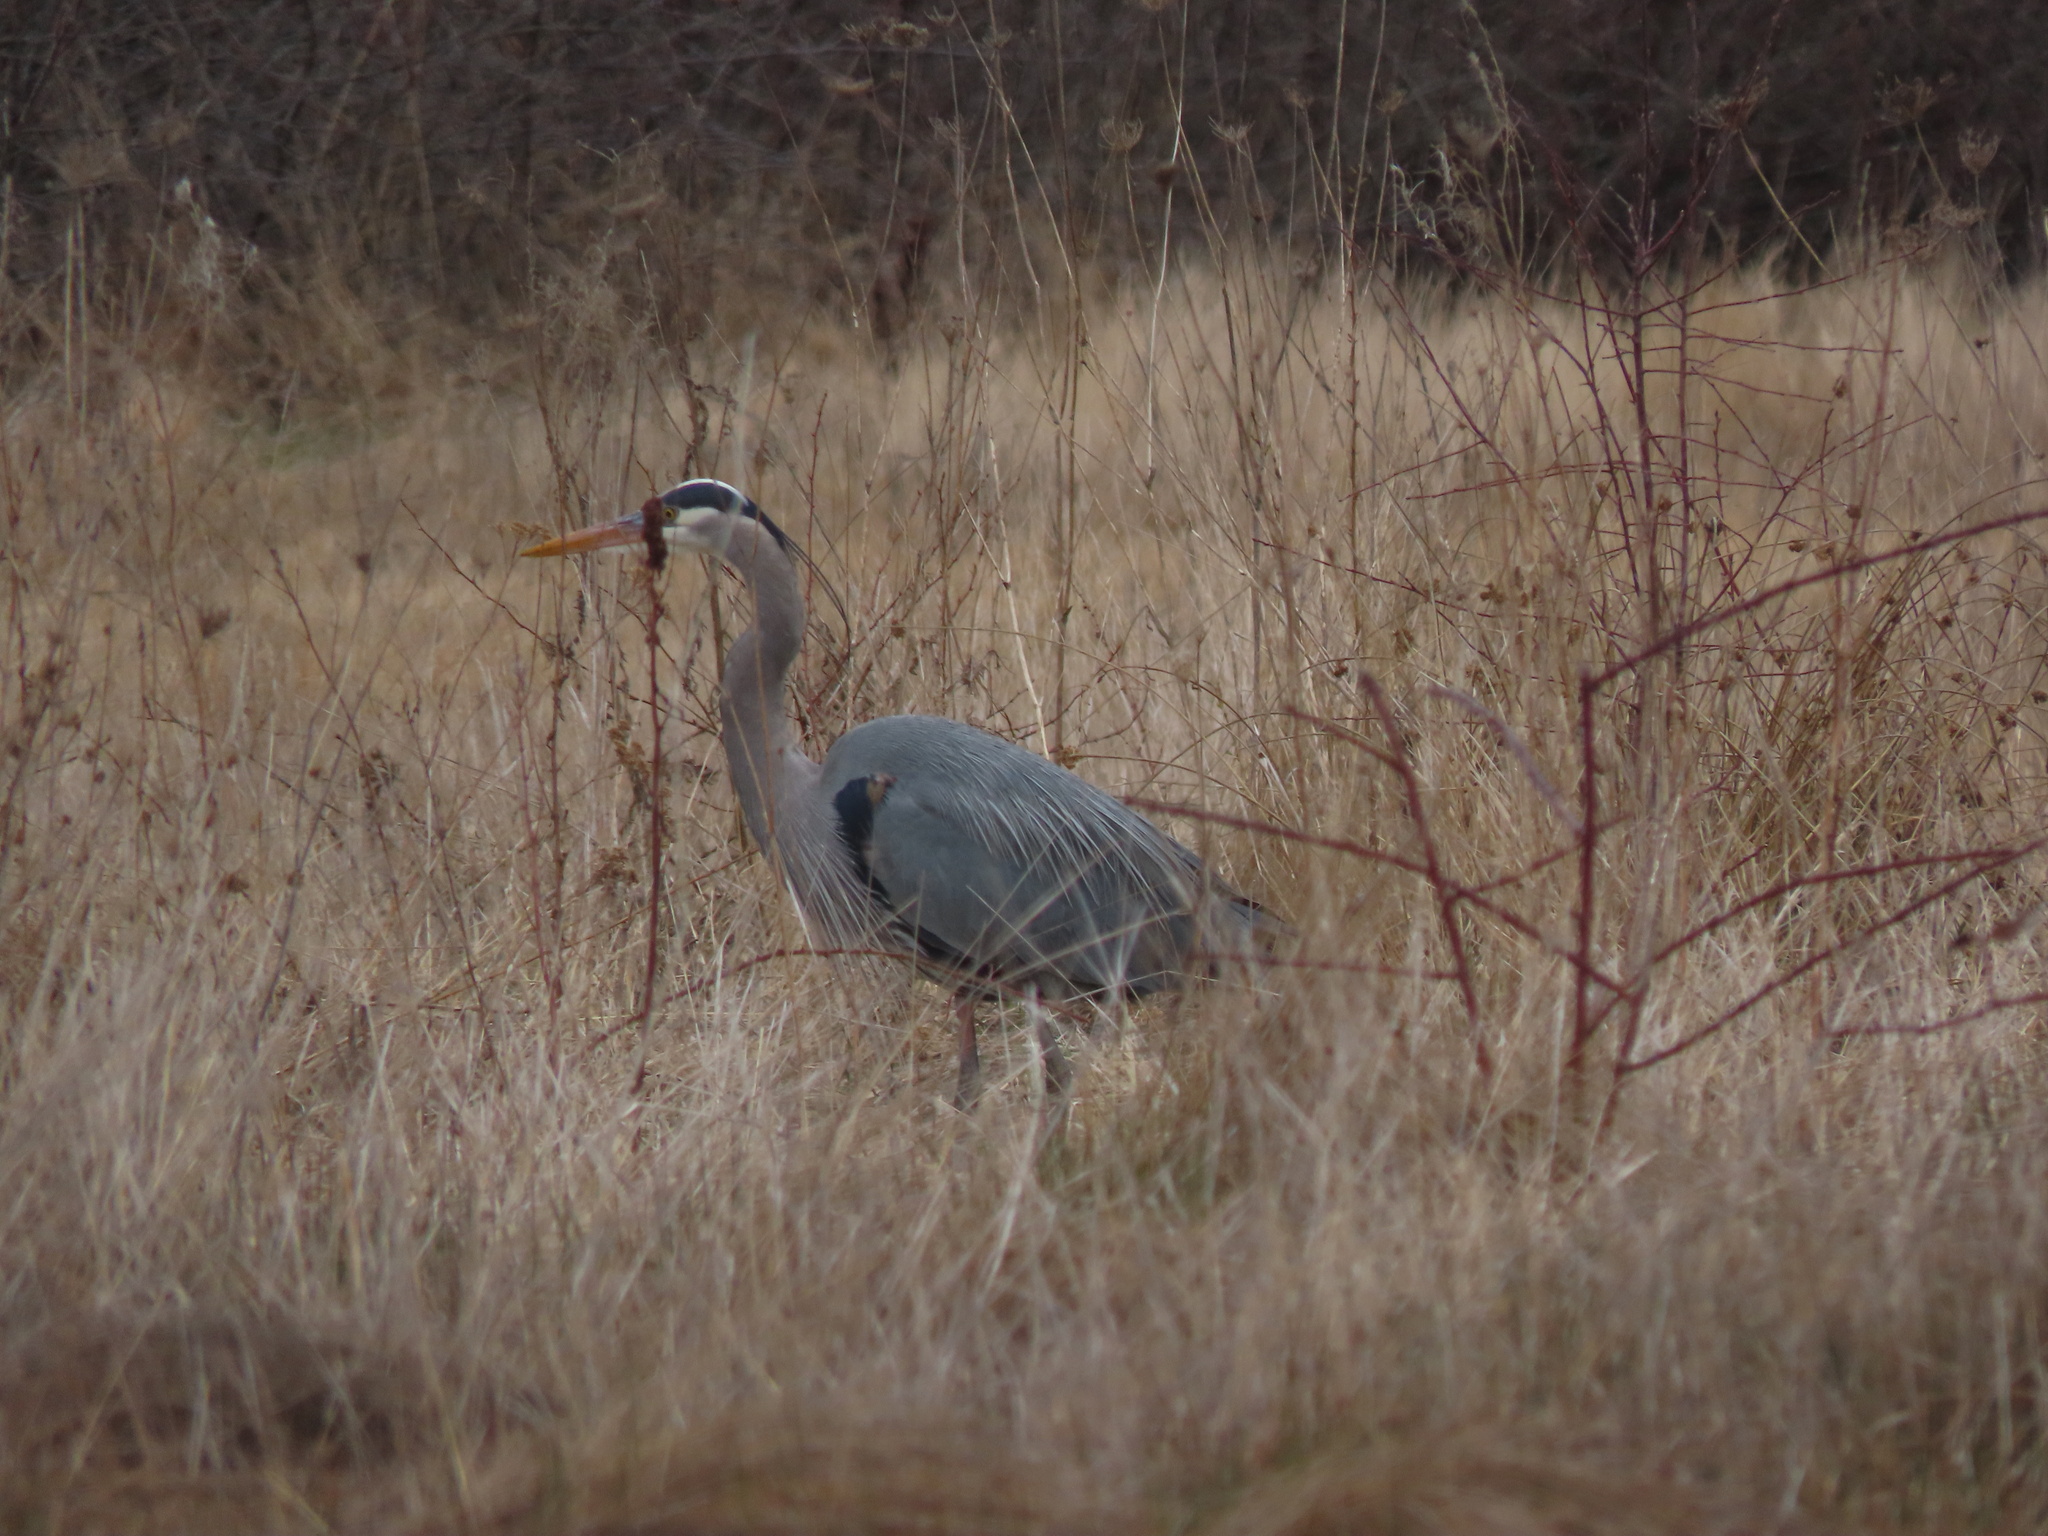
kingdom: Animalia
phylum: Chordata
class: Aves
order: Pelecaniformes
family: Ardeidae
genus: Ardea
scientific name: Ardea herodias
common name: Great blue heron
